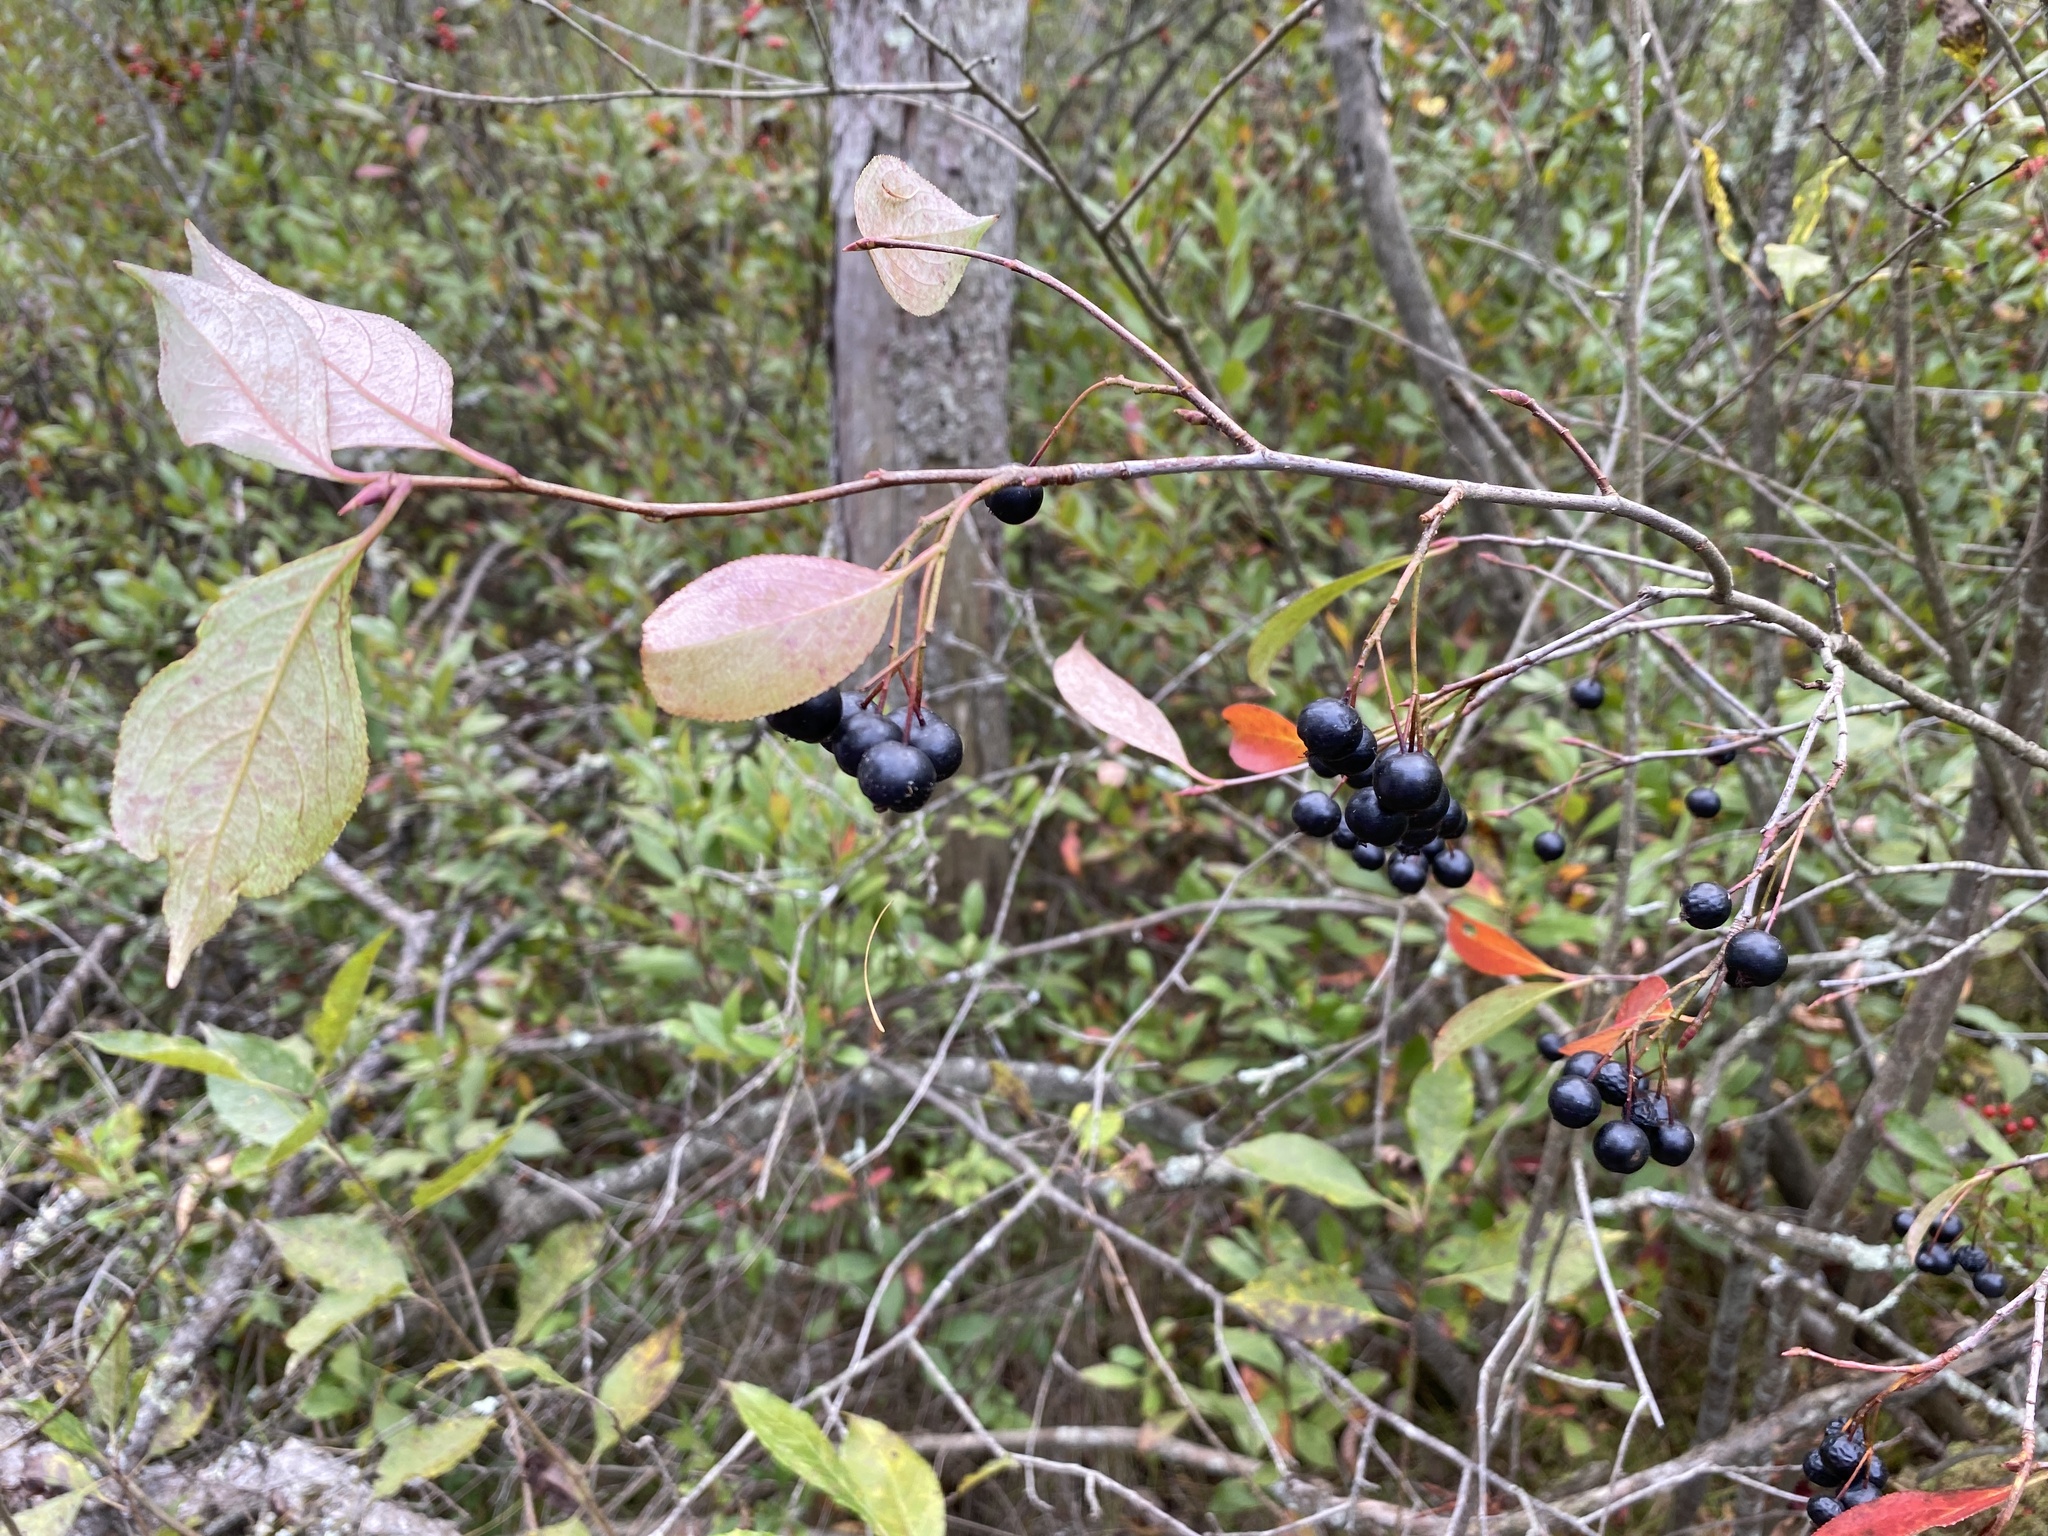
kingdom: Plantae
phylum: Tracheophyta
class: Magnoliopsida
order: Rosales
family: Rosaceae
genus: Aronia
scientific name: Aronia melanocarpa
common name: Black chokeberry
